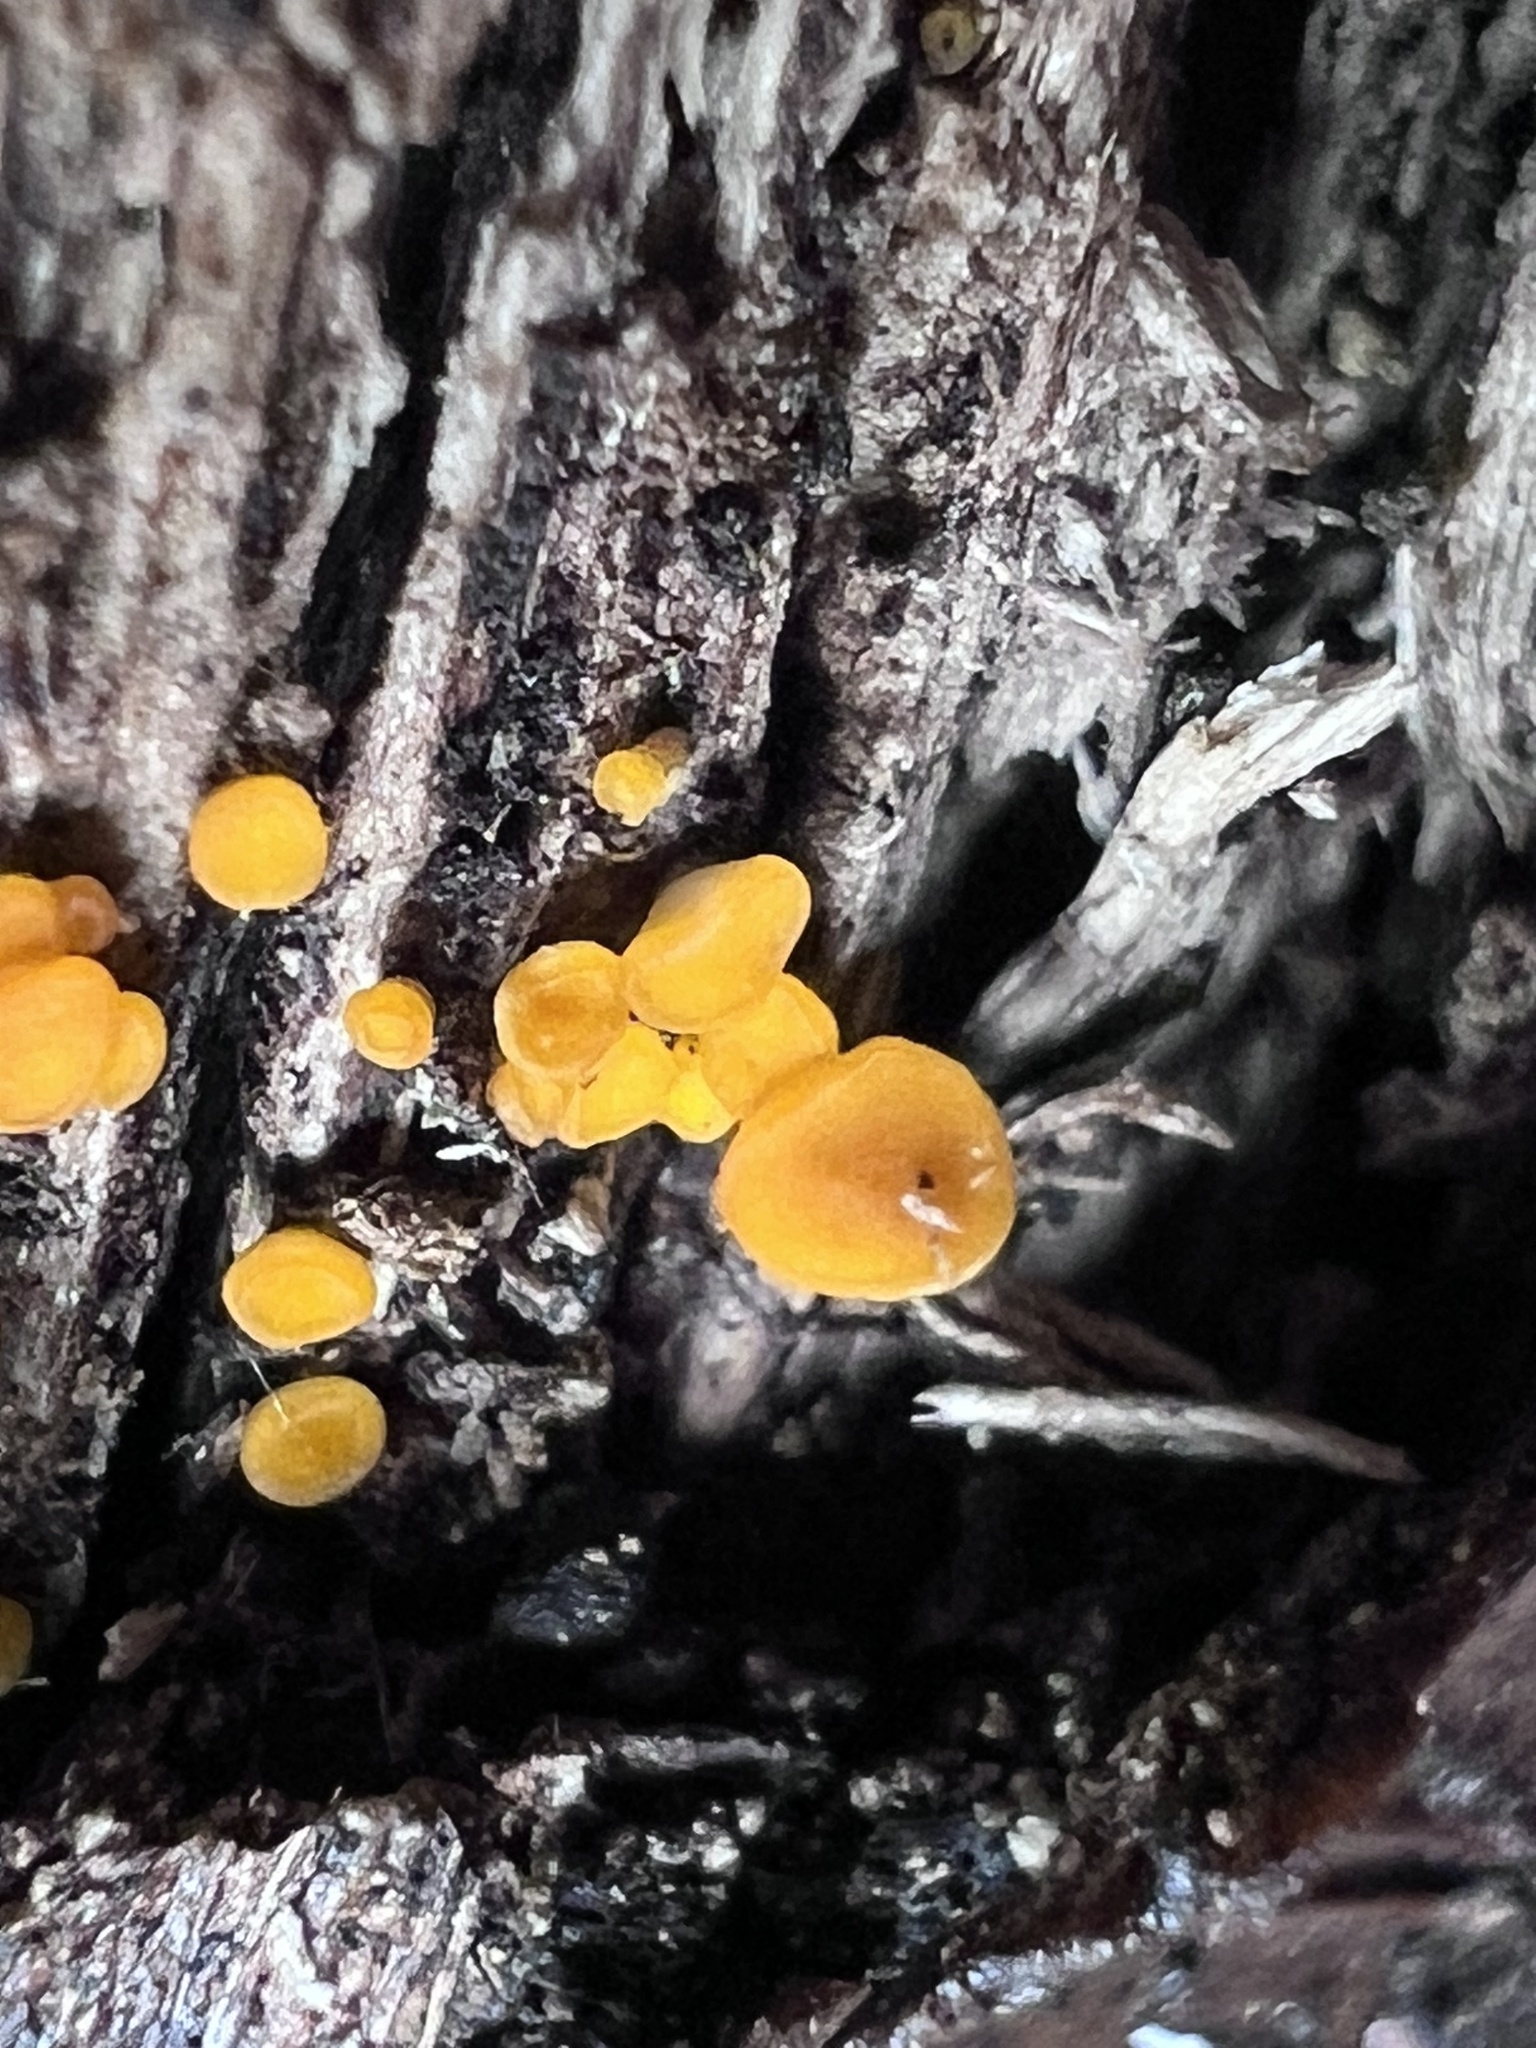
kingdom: Fungi
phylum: Ascomycota
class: Leotiomycetes
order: Helotiales
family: Pezizellaceae
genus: Calycina
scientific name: Calycina citrina
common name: Yellow fairy cups
